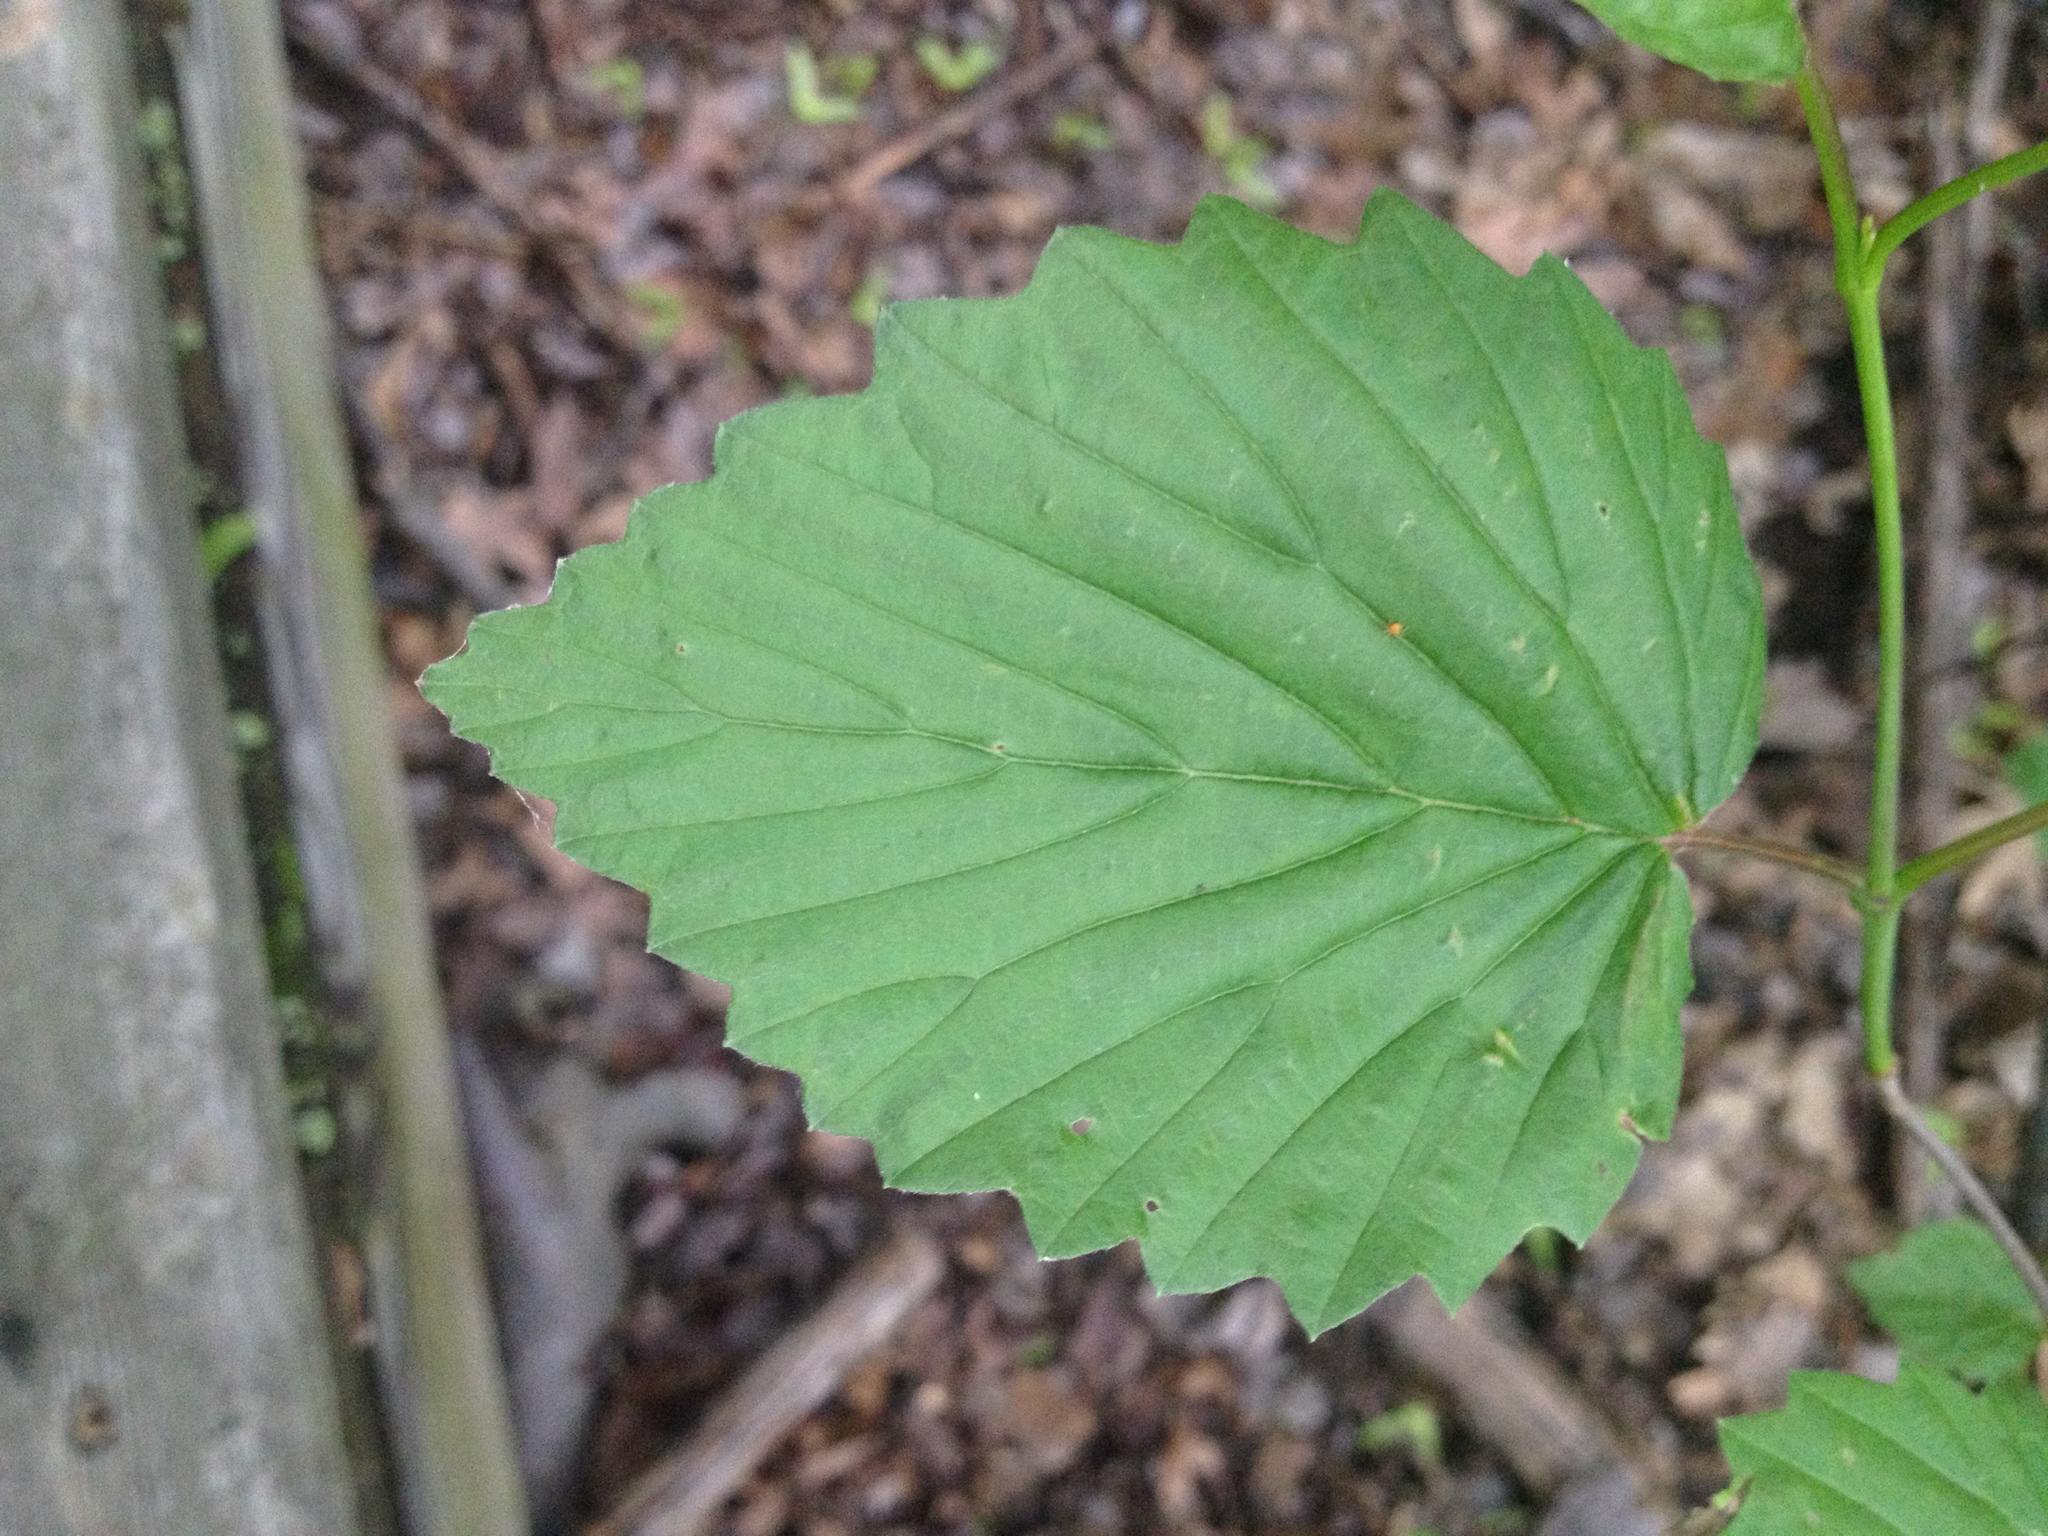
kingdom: Plantae
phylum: Tracheophyta
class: Magnoliopsida
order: Dipsacales
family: Viburnaceae
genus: Viburnum
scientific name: Viburnum dentatum
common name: Arrow-wood
